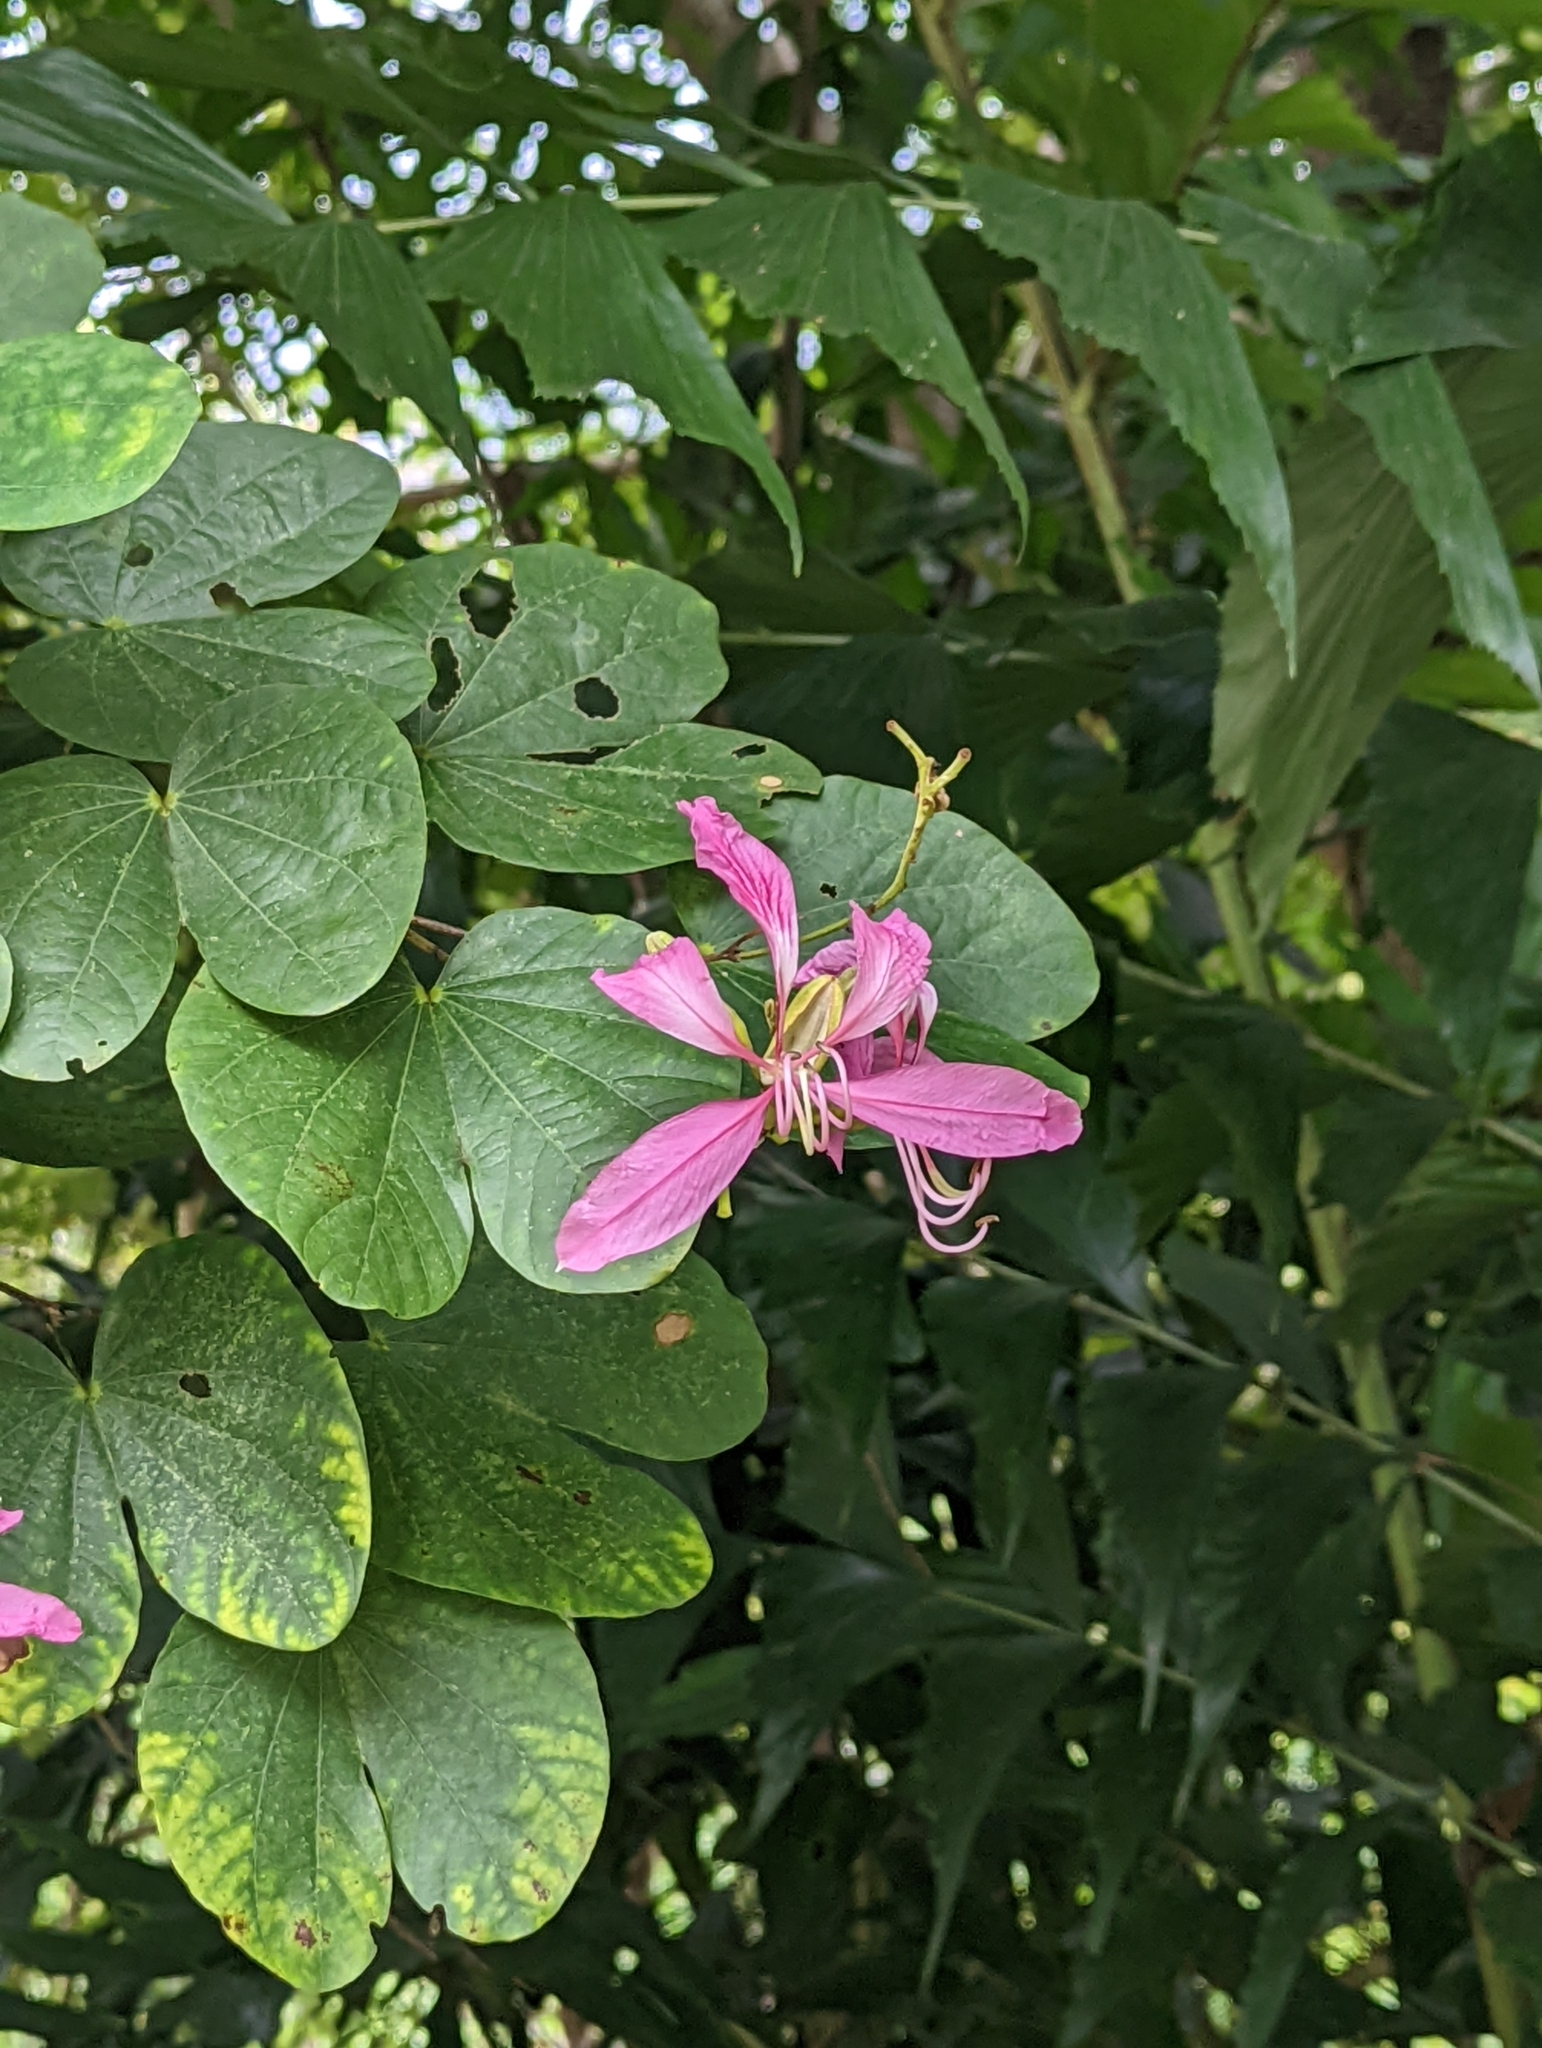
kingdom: Plantae
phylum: Tracheophyta
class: Magnoliopsida
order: Fabales
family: Fabaceae
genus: Bauhinia
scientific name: Bauhinia purpurea
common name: Butterfly-tree
